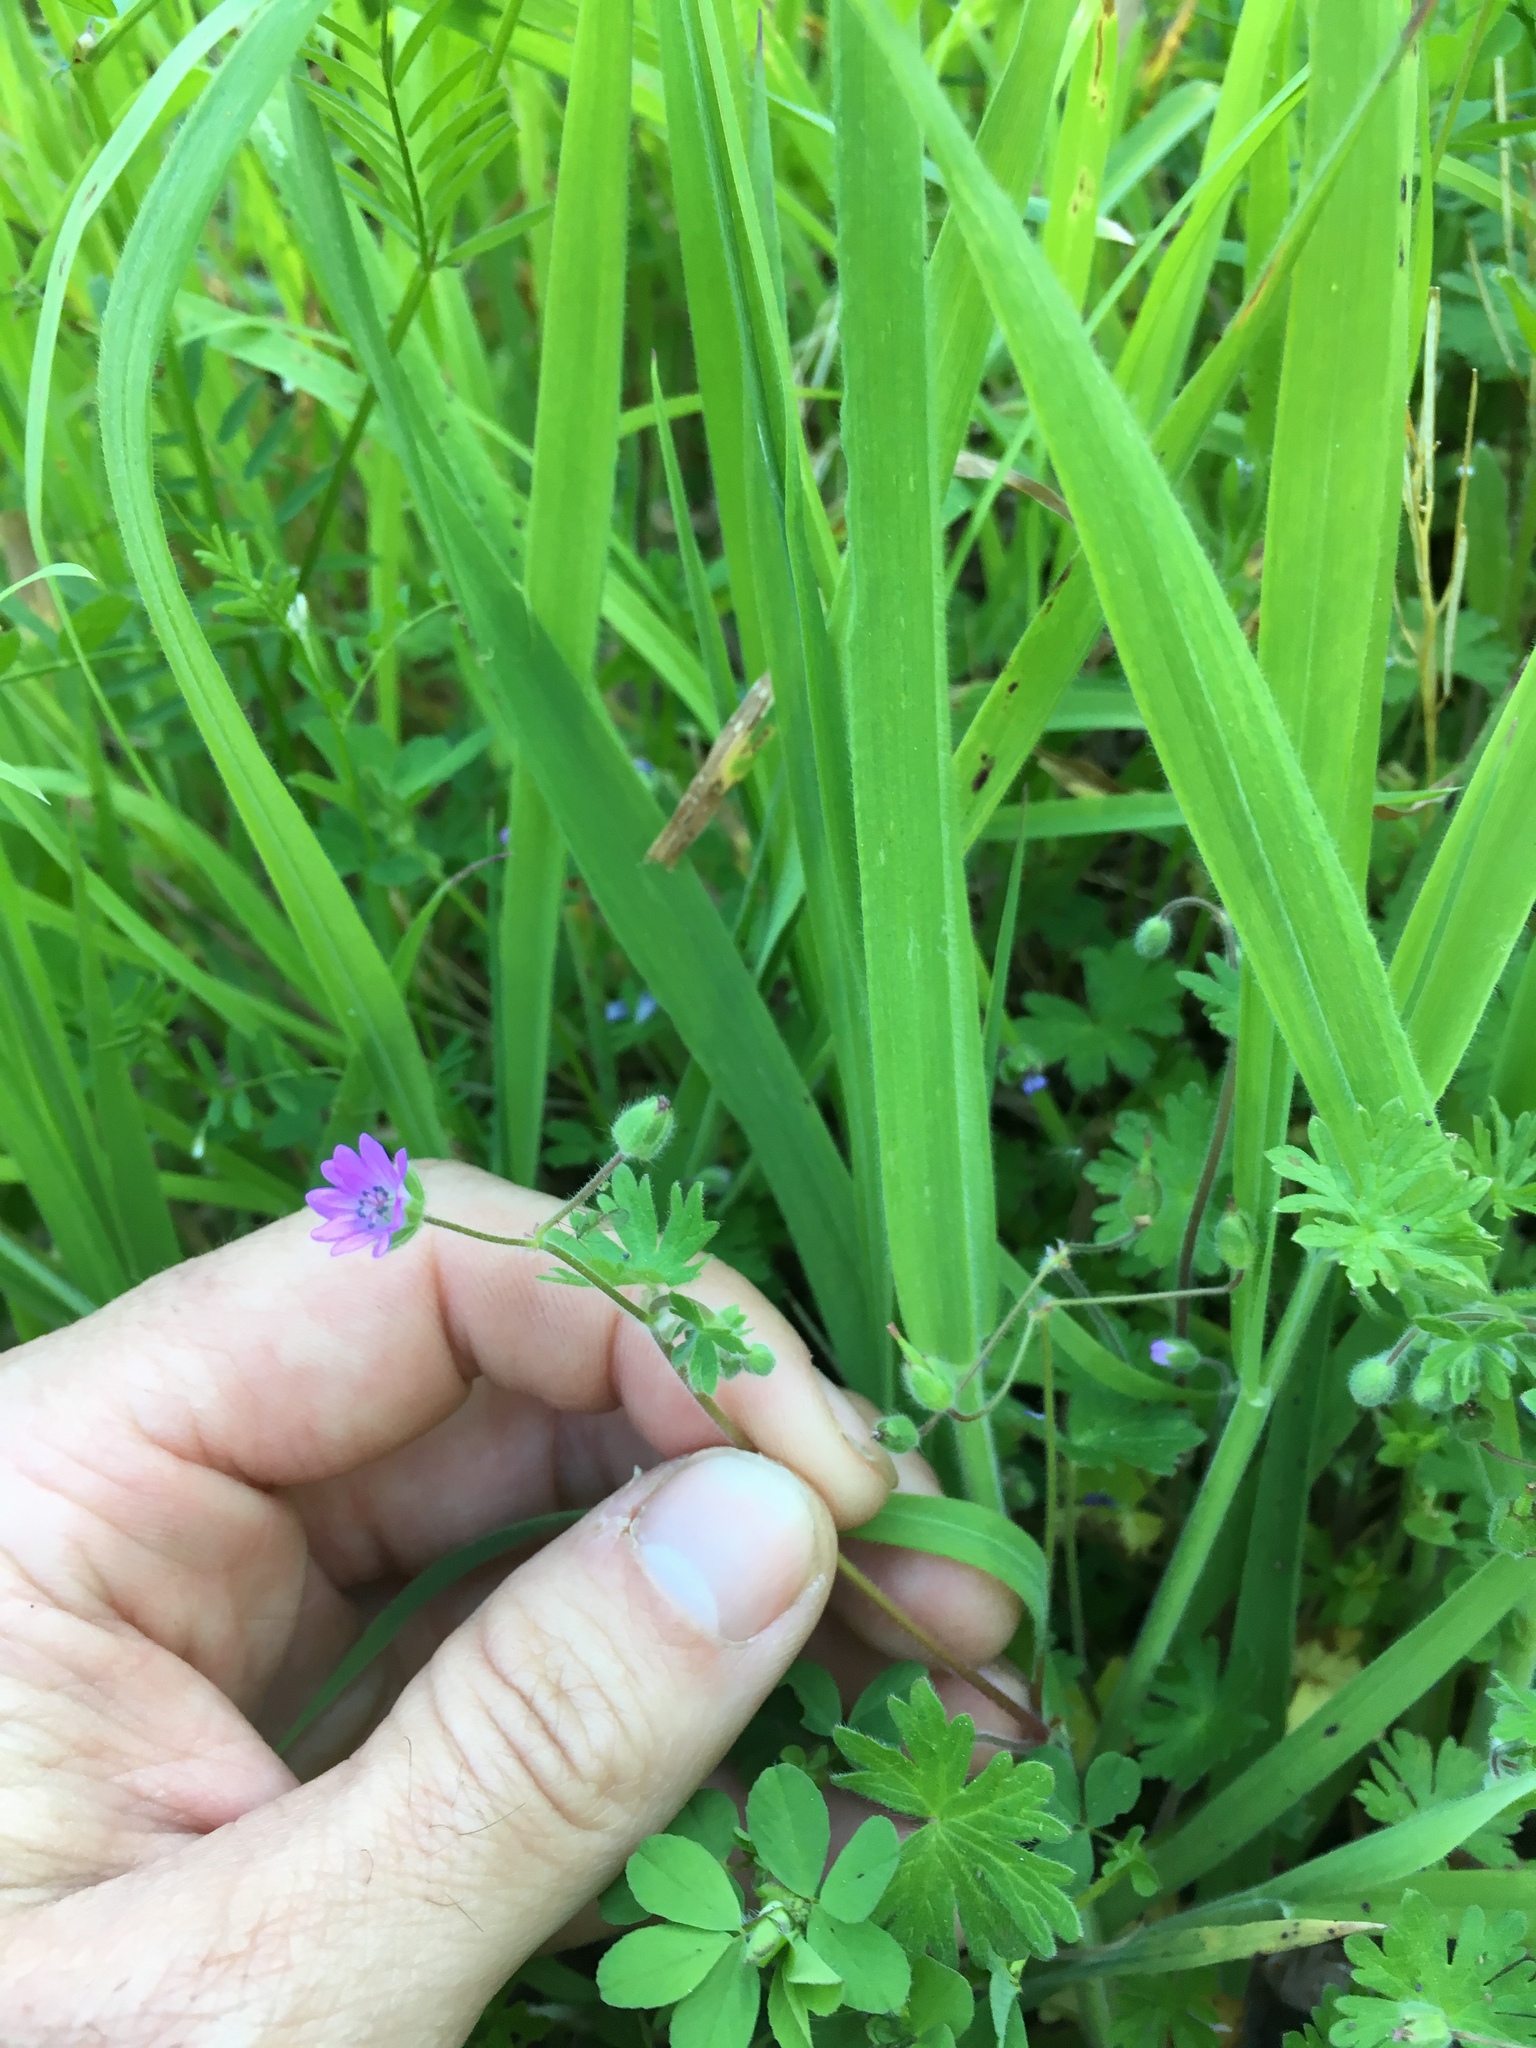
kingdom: Plantae
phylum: Tracheophyta
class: Magnoliopsida
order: Geraniales
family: Geraniaceae
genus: Geranium
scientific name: Geranium molle
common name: Dove's-foot crane's-bill
